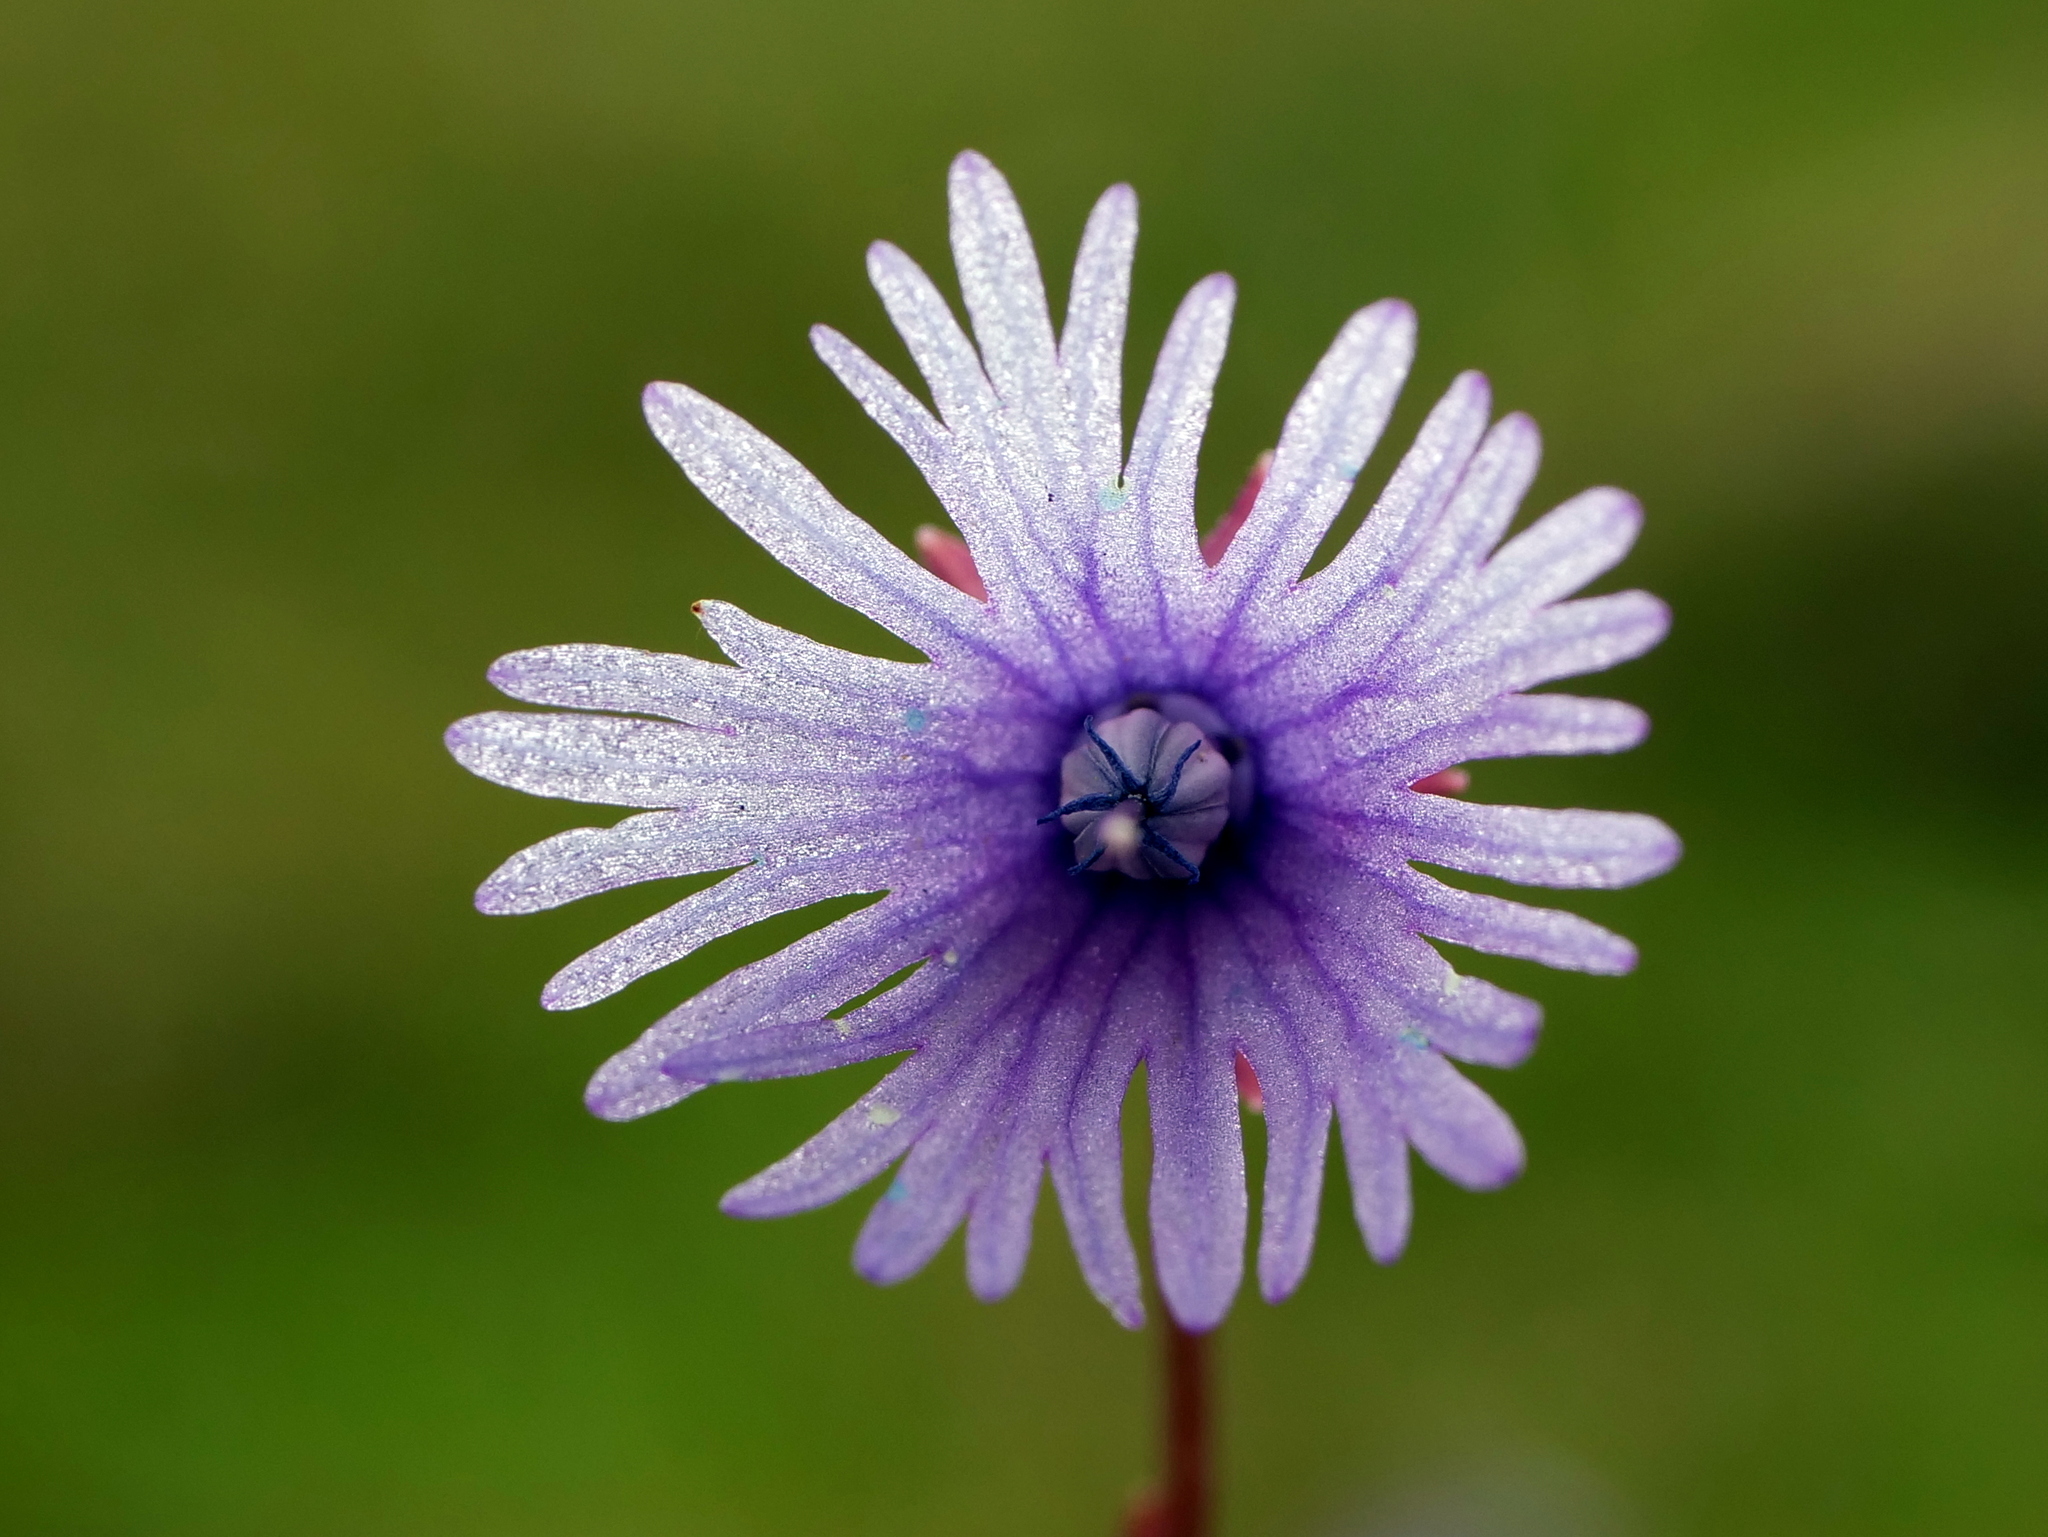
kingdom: Plantae
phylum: Tracheophyta
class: Magnoliopsida
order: Ericales
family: Primulaceae
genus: Soldanella
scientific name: Soldanella alpina
